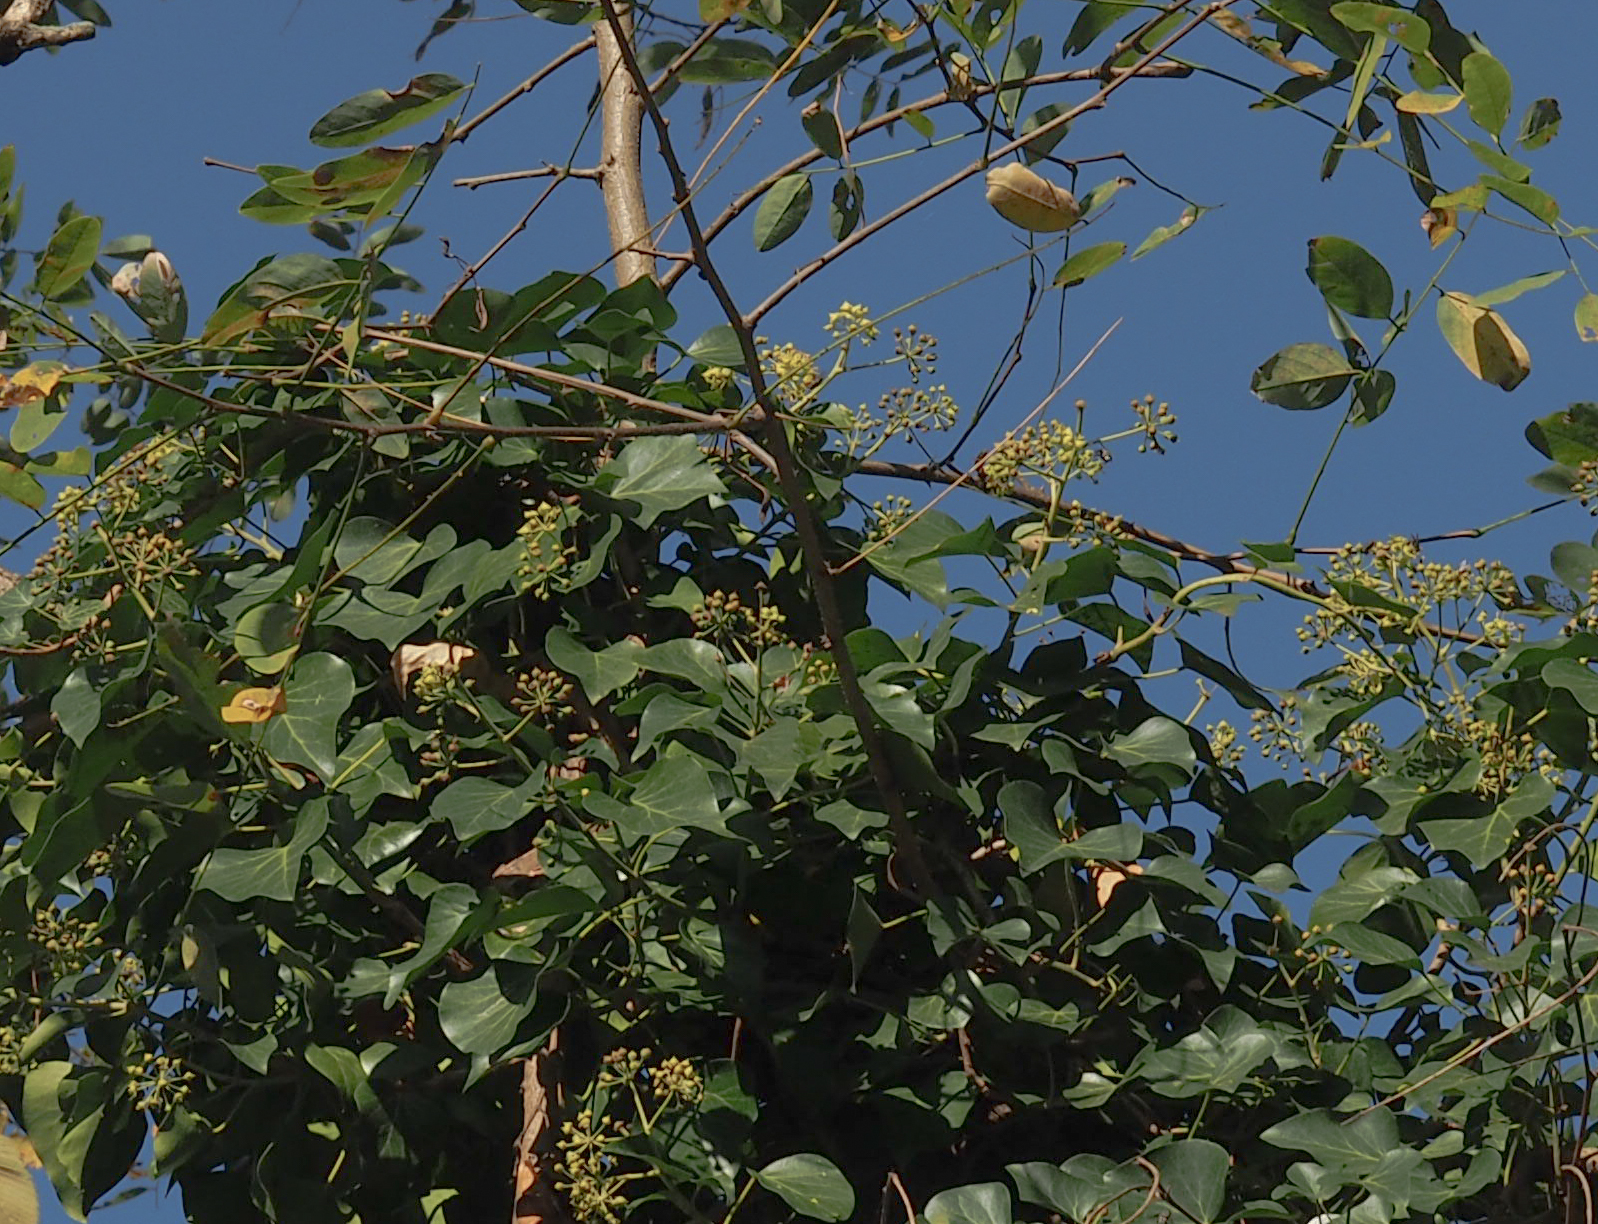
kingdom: Plantae
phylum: Tracheophyta
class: Magnoliopsida
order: Apiales
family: Araliaceae
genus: Hedera
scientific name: Hedera helix
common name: Ivy
